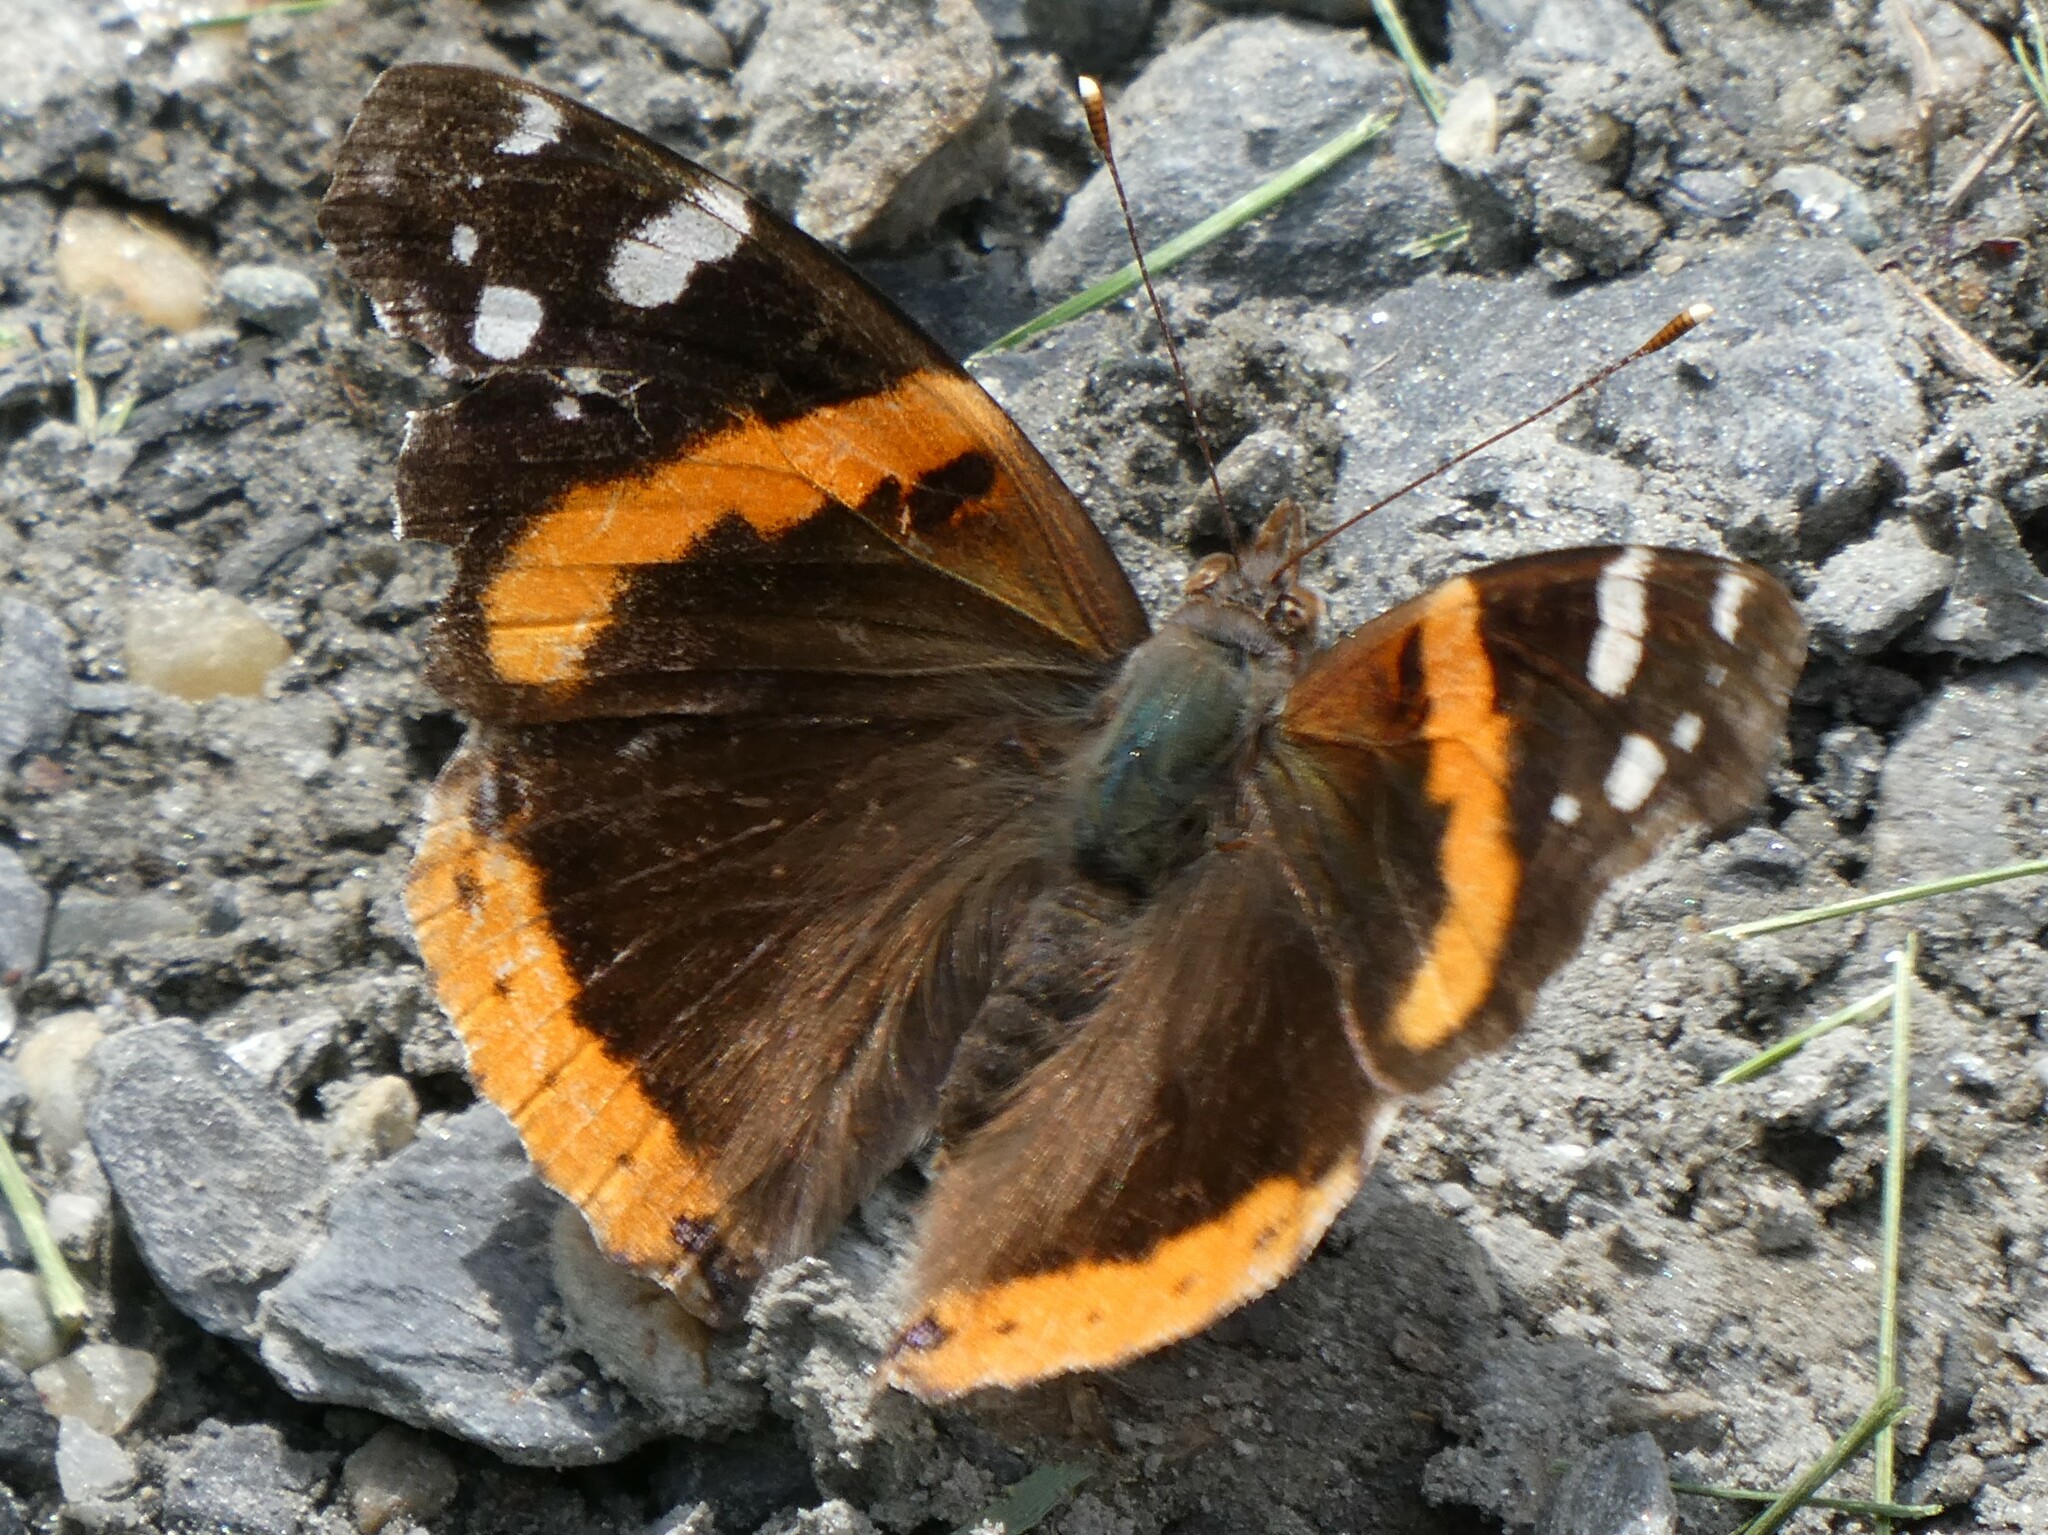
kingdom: Animalia
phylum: Arthropoda
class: Insecta
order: Lepidoptera
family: Nymphalidae
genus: Vanessa
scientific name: Vanessa atalanta
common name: Red admiral
